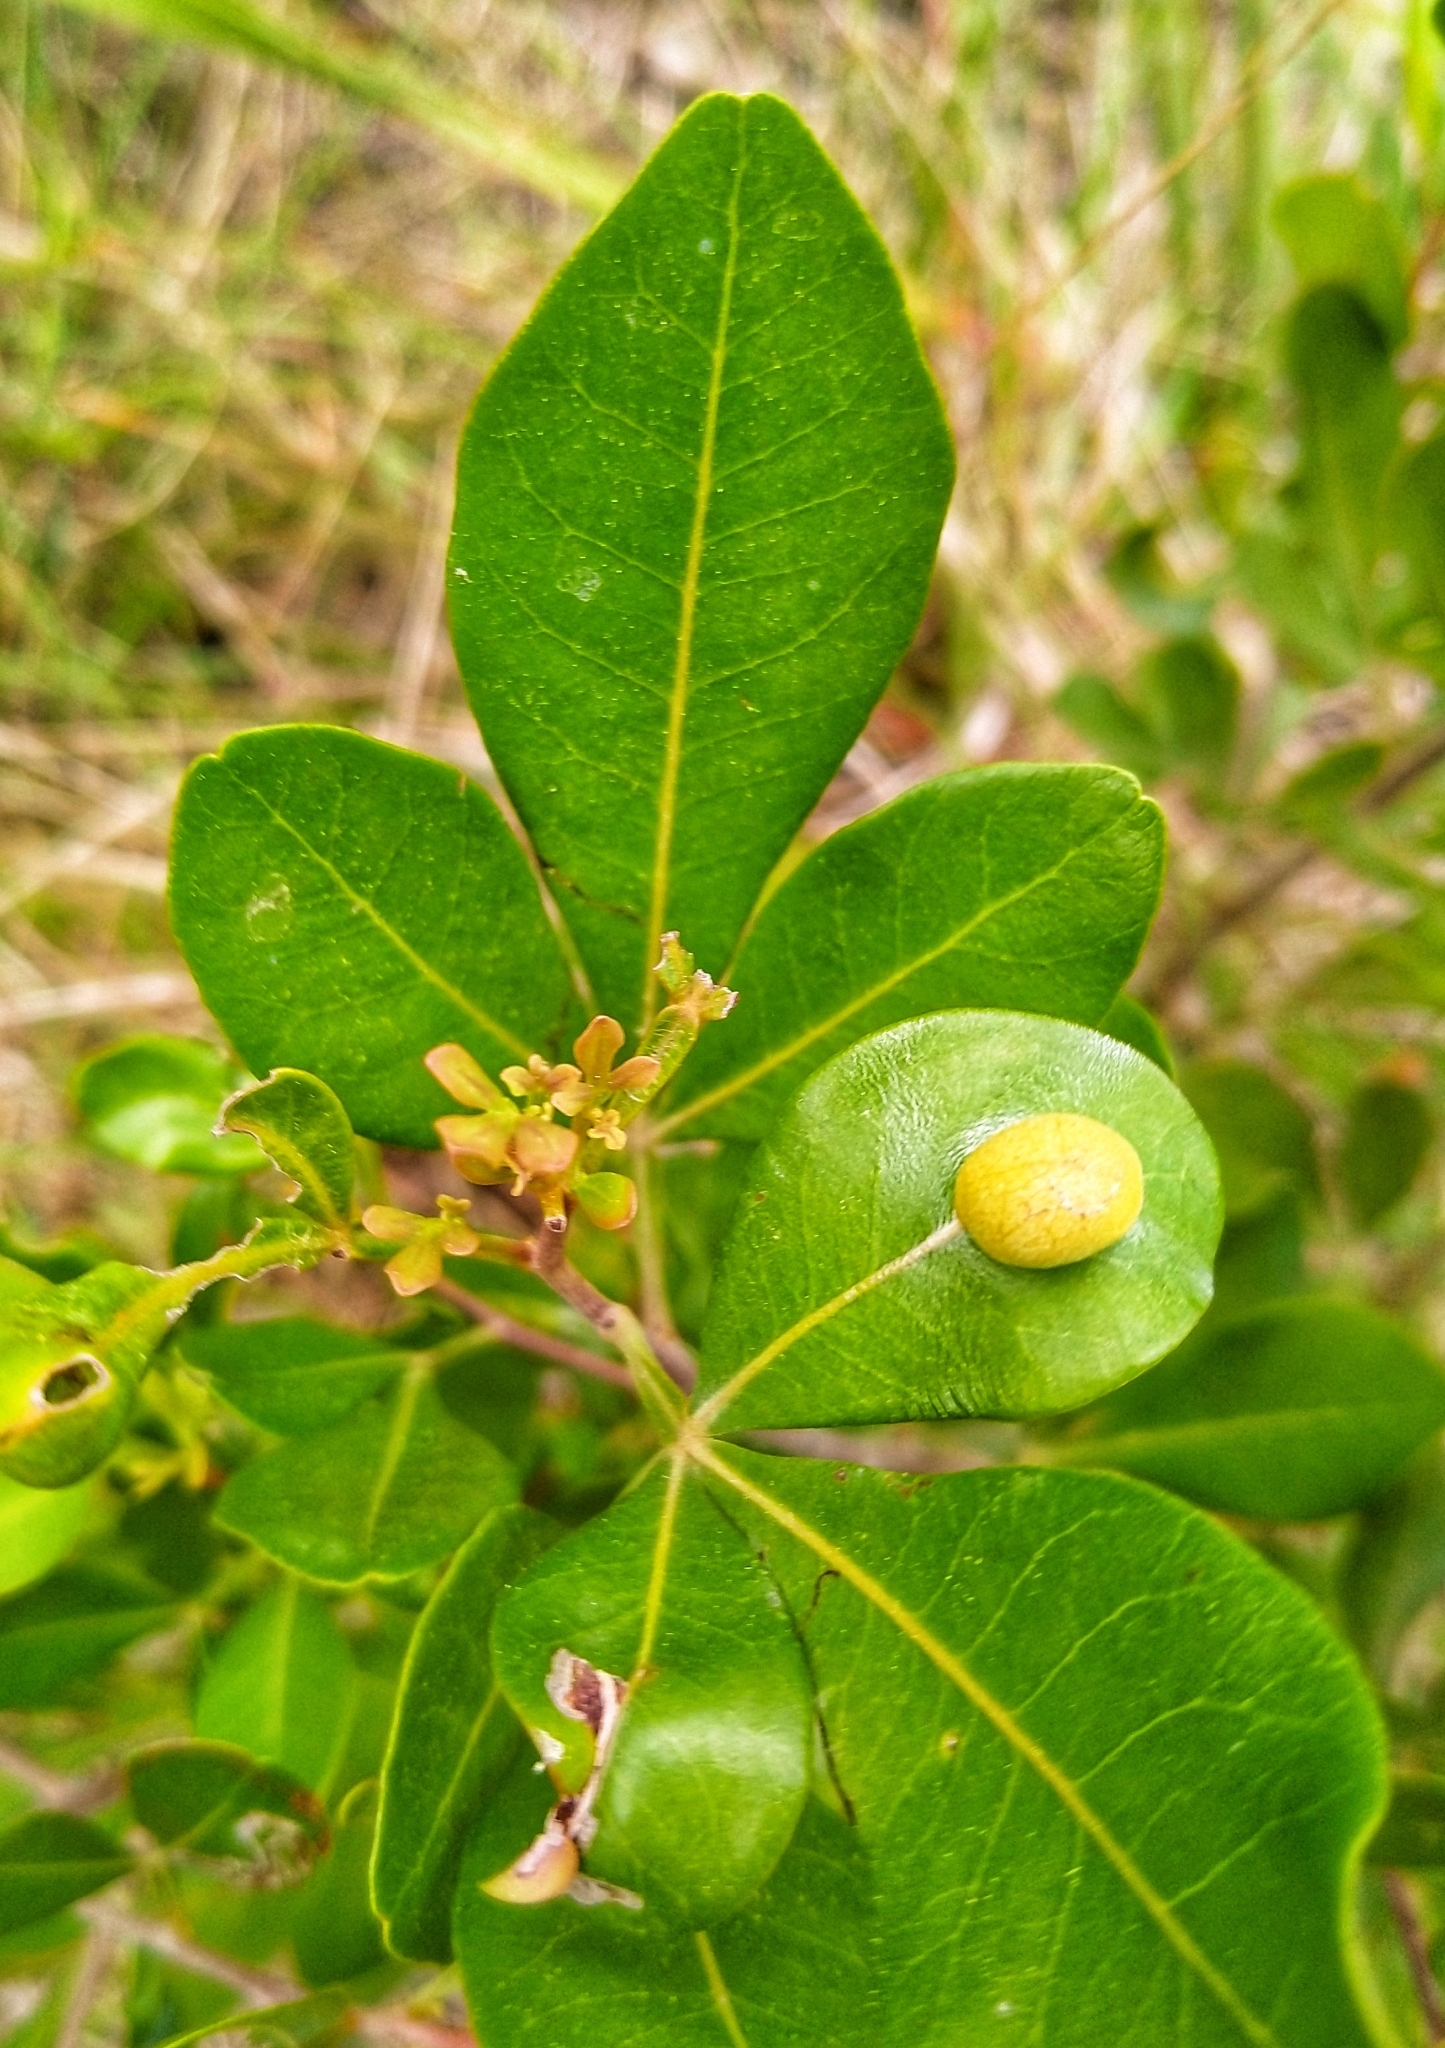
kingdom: Plantae
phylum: Tracheophyta
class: Magnoliopsida
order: Sapindales
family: Anacardiaceae
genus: Searsia
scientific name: Searsia lucida
